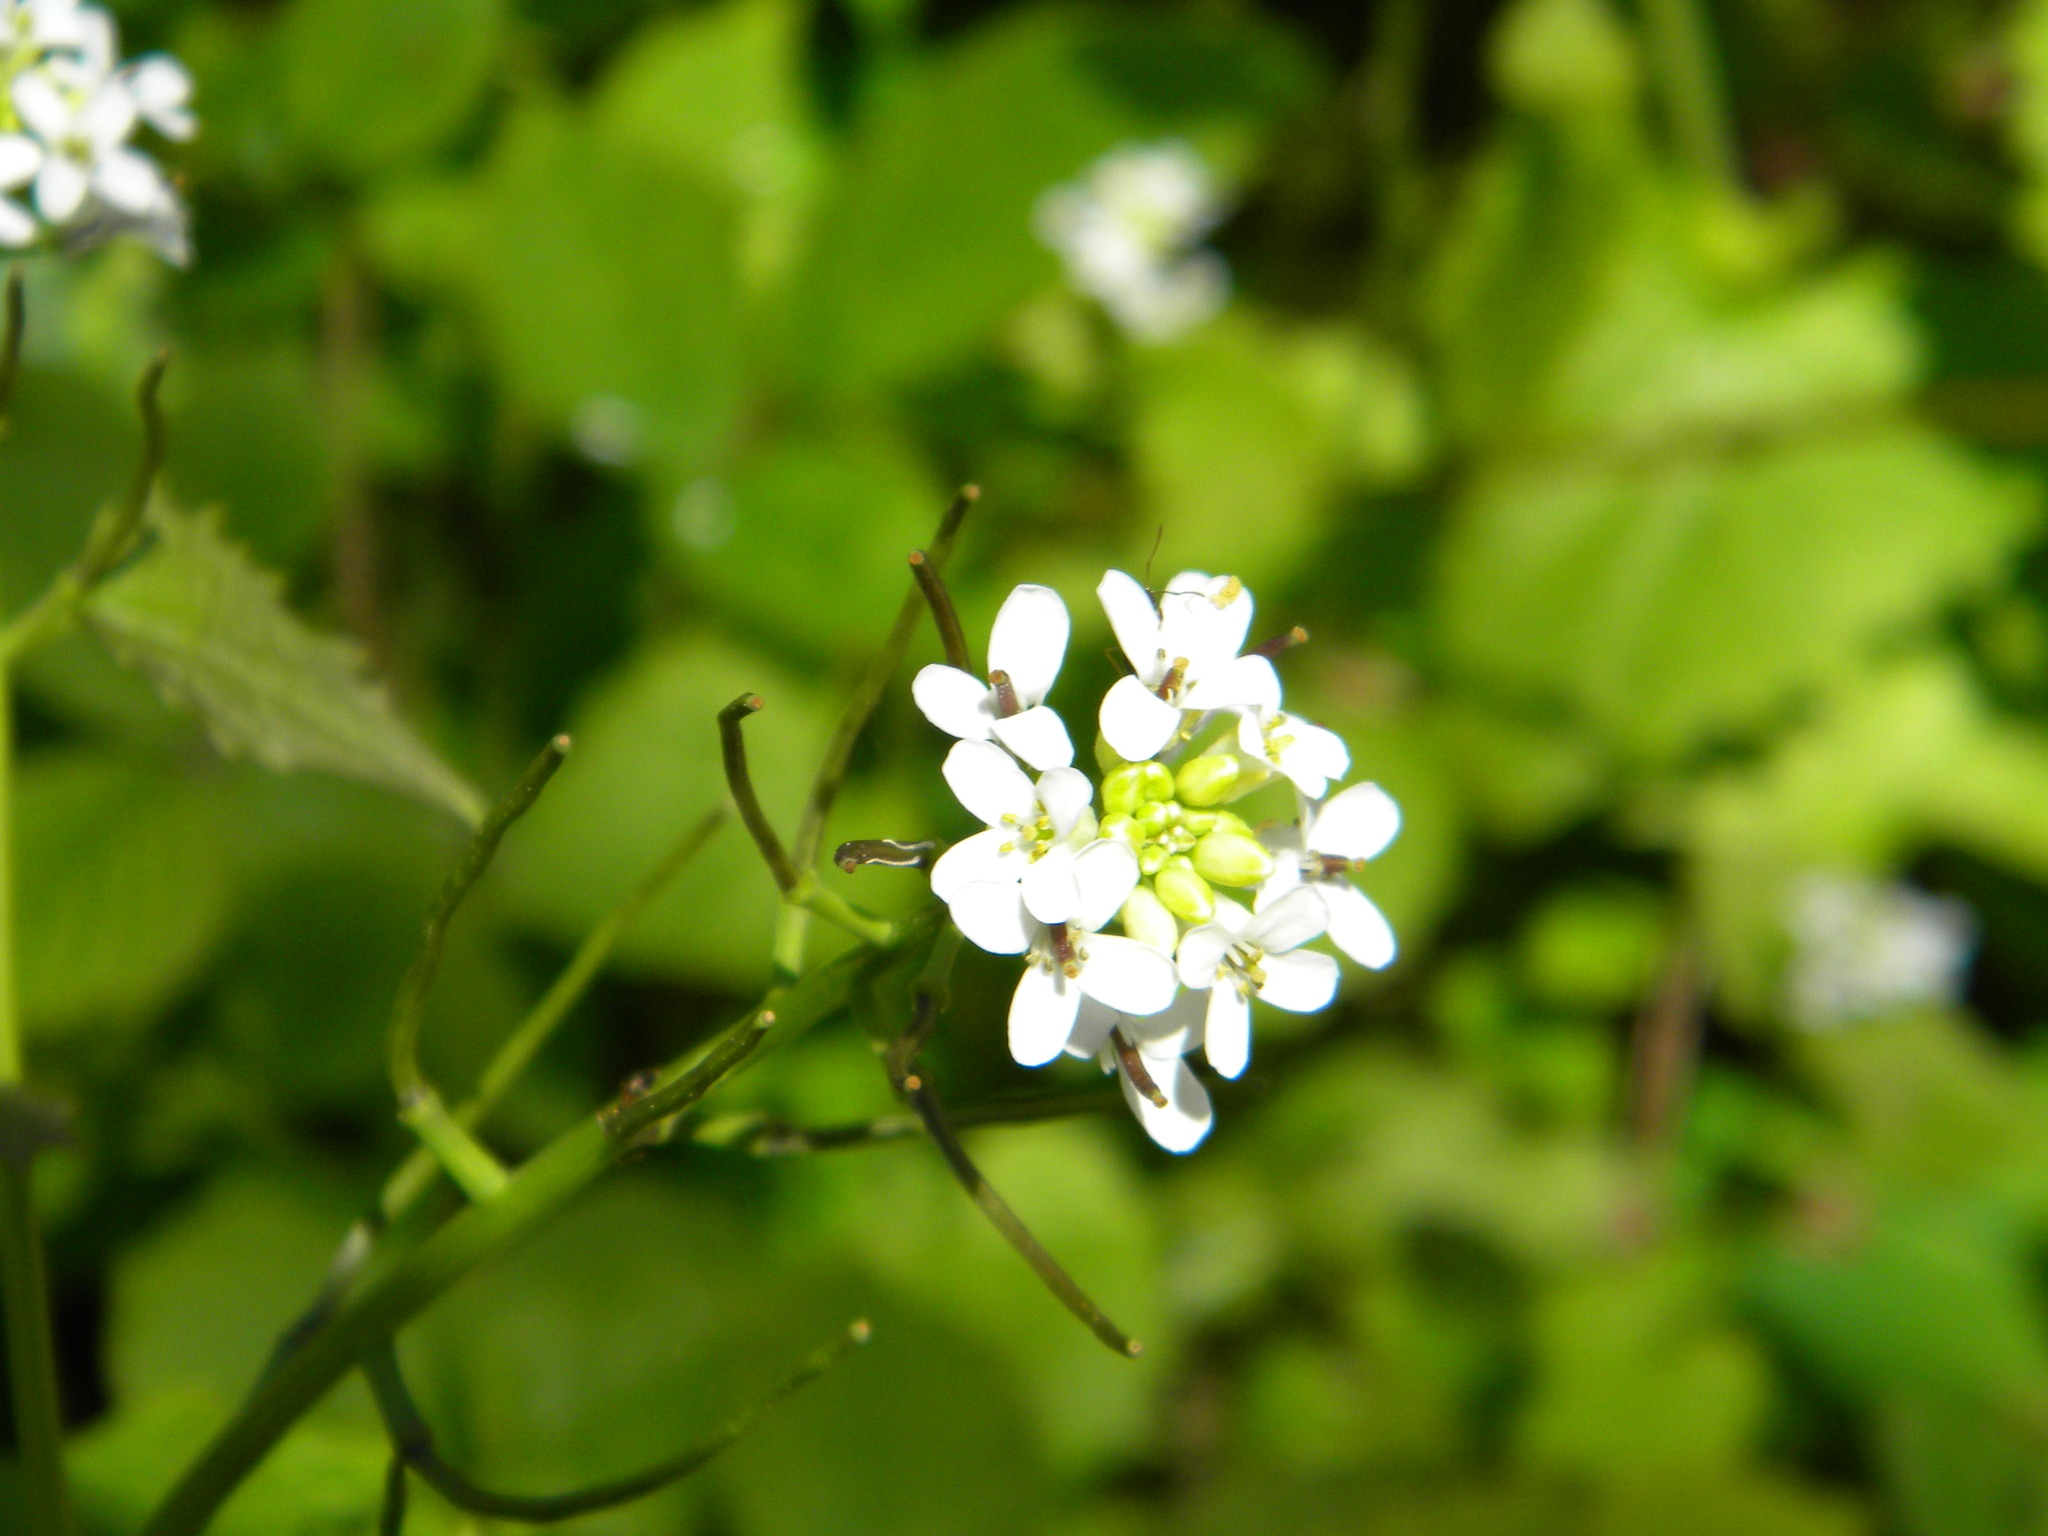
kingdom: Plantae
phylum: Tracheophyta
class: Magnoliopsida
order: Brassicales
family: Brassicaceae
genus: Alliaria
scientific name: Alliaria petiolata
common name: Garlic mustard
